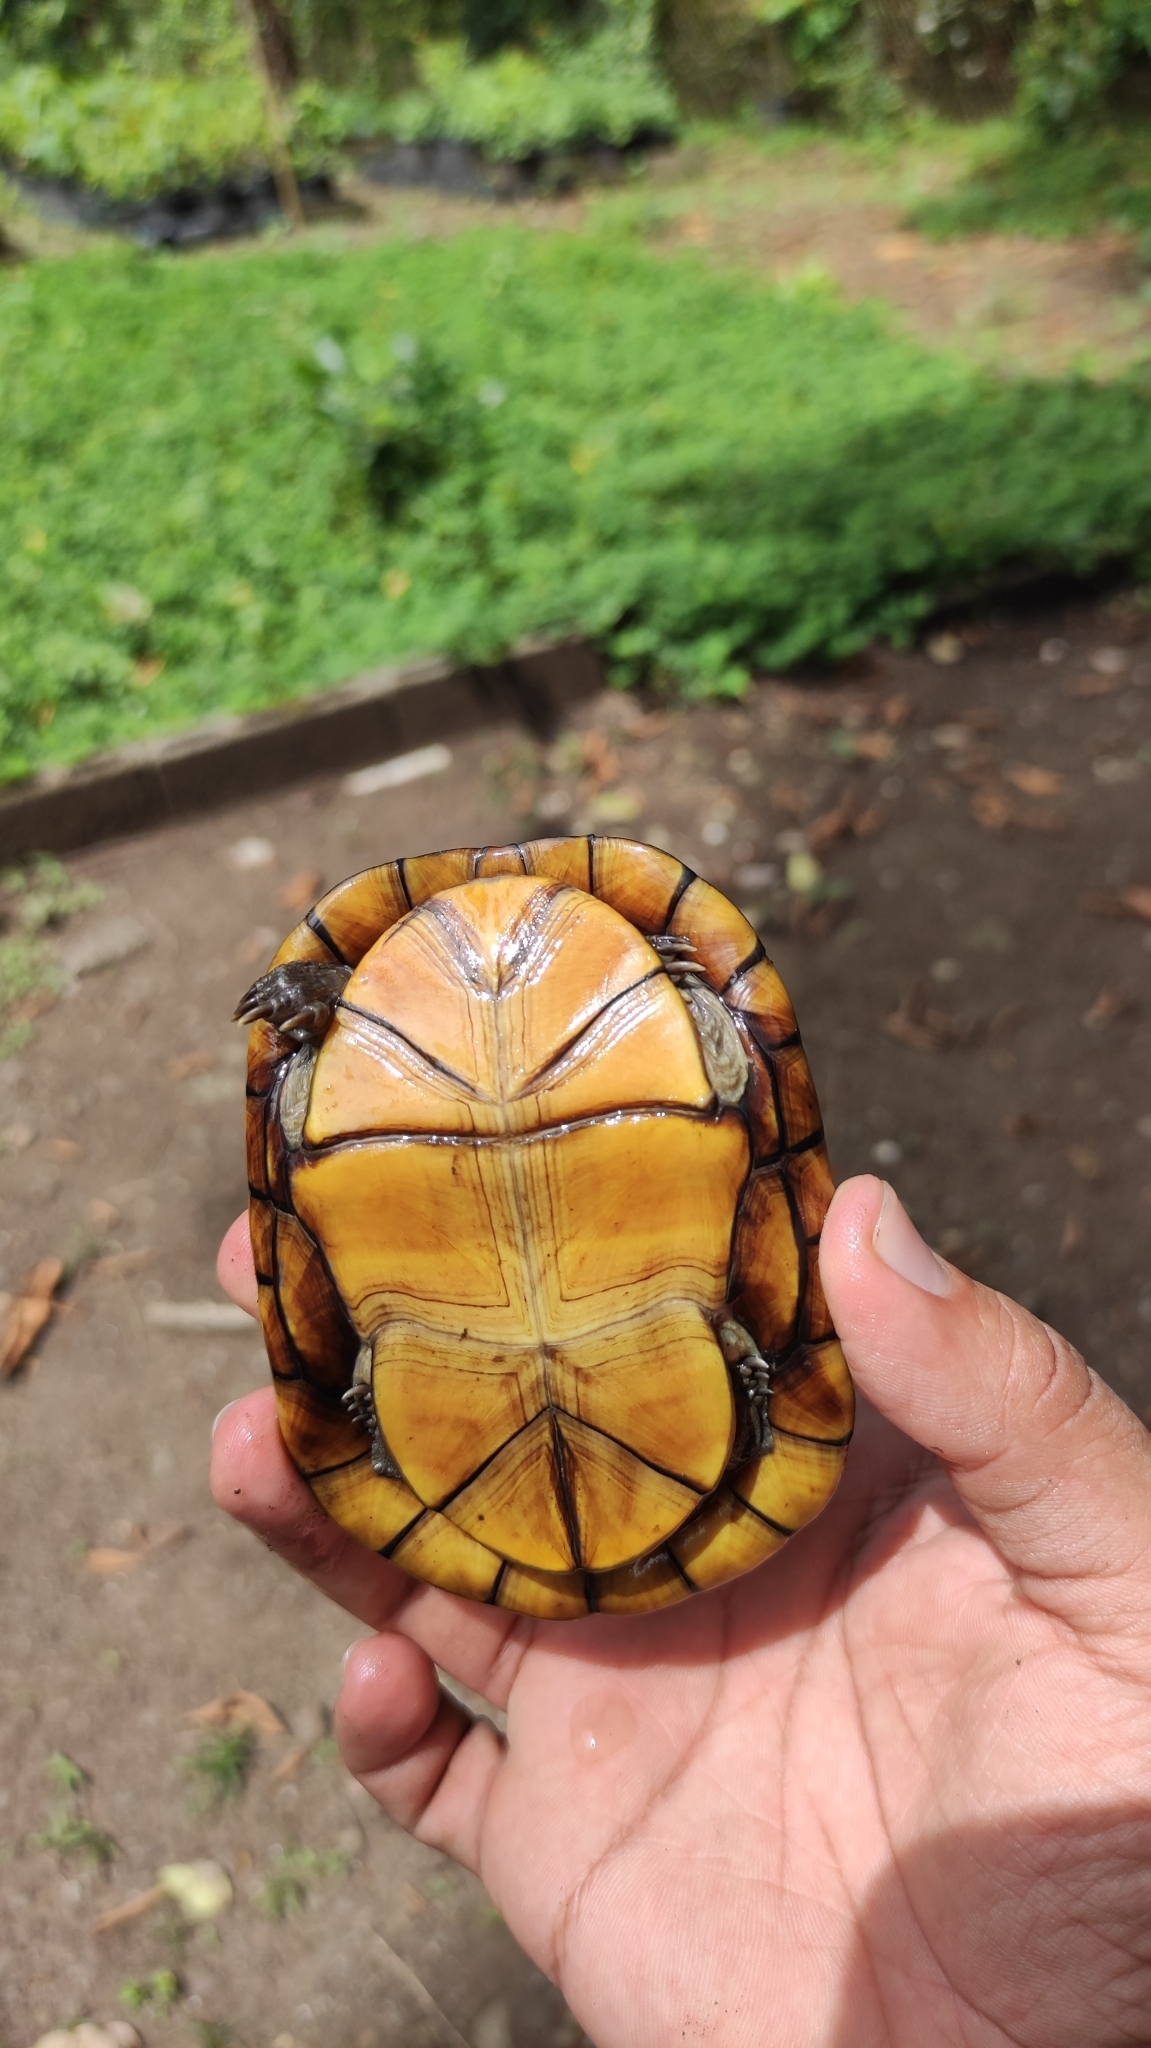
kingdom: Animalia
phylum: Chordata
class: Testudines
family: Kinosternidae
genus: Kinosternon
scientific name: Kinosternon scorpioides
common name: Scorpion mud turtle
